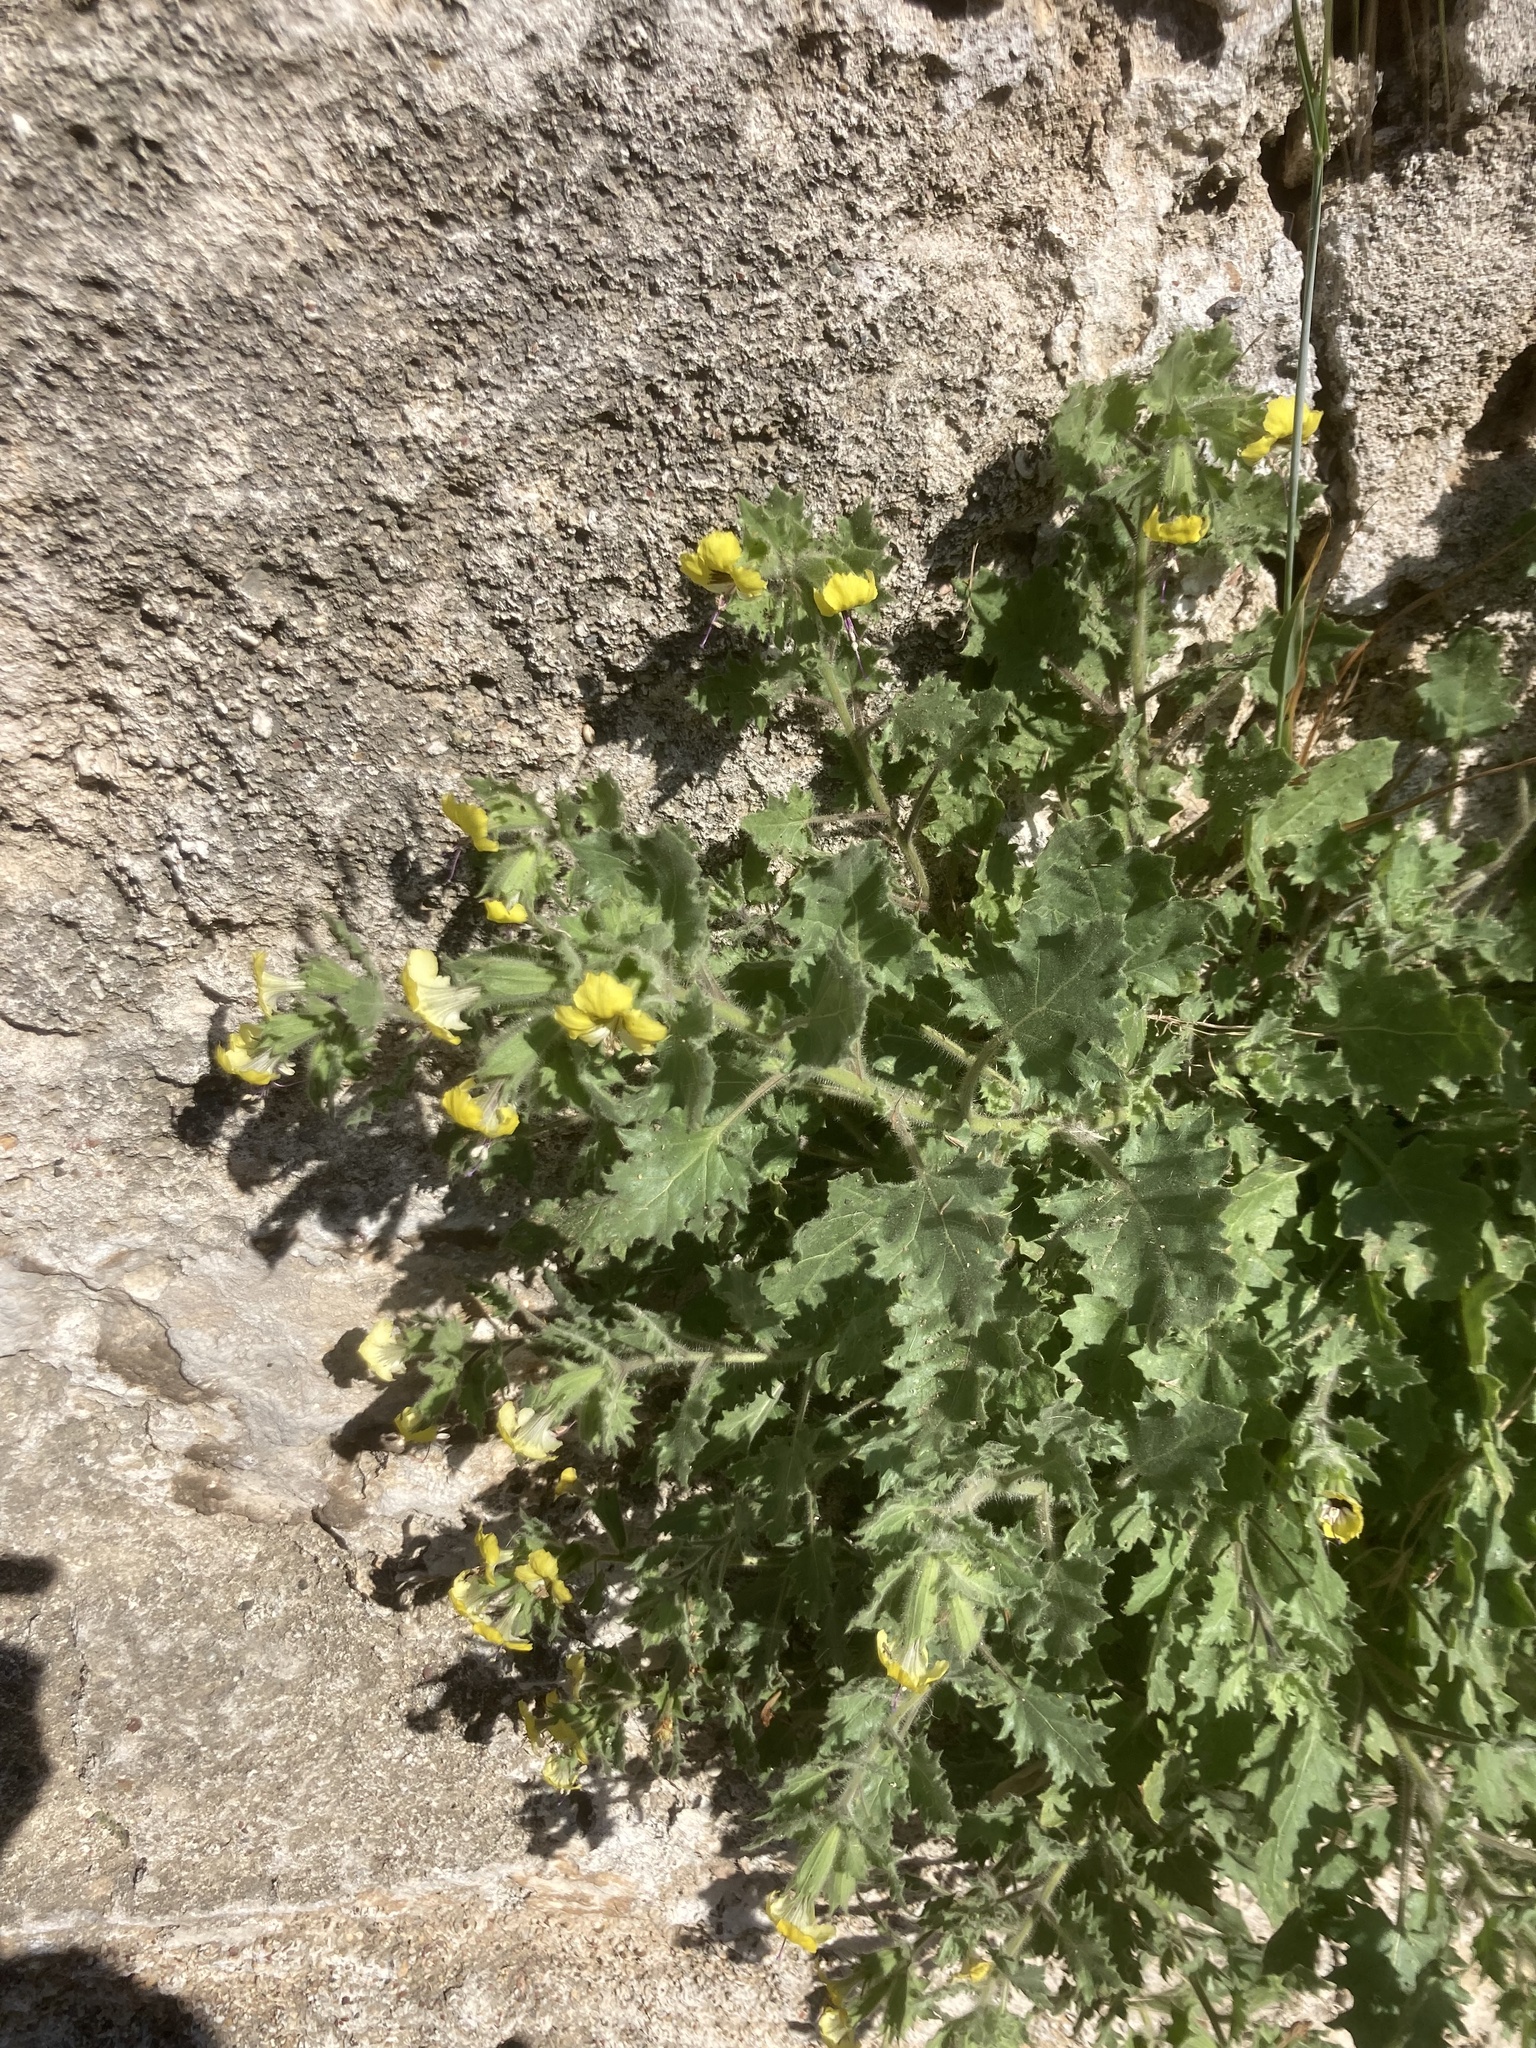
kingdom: Plantae
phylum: Tracheophyta
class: Magnoliopsida
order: Solanales
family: Solanaceae
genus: Hyoscyamus
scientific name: Hyoscyamus aureus
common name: Golden henbane
